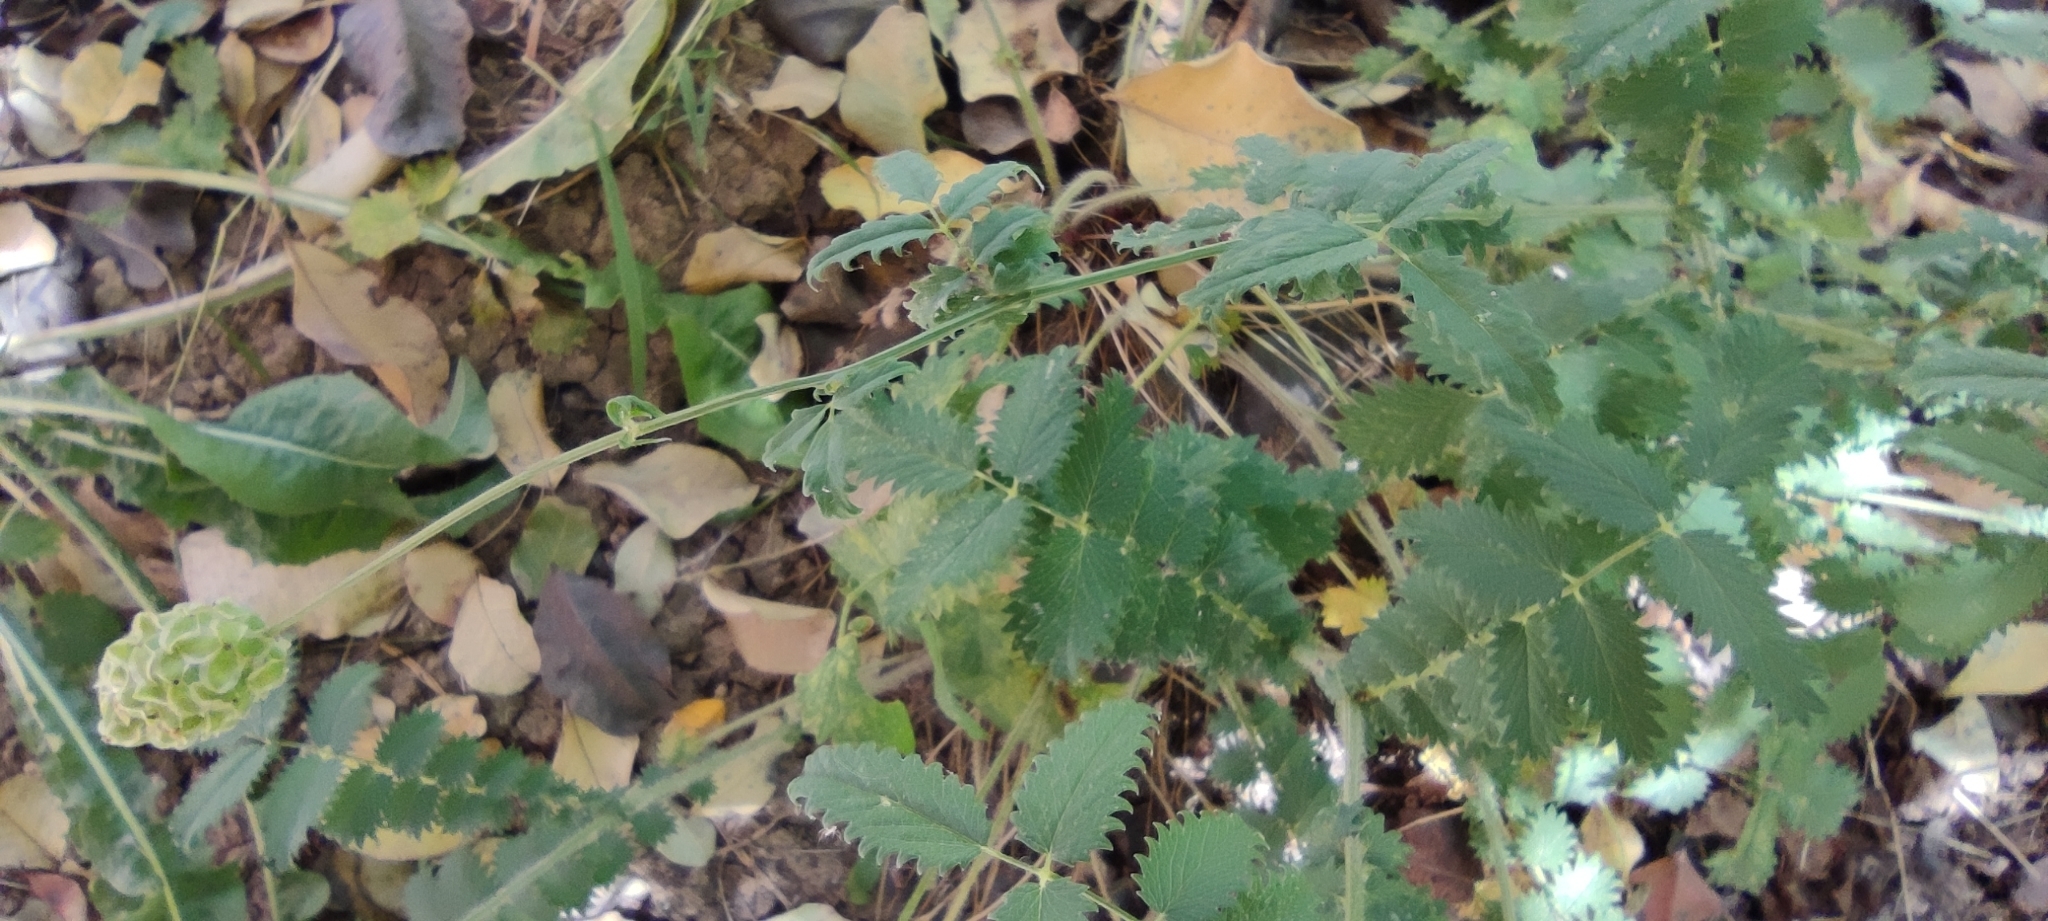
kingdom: Plantae
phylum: Tracheophyta
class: Magnoliopsida
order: Rosales
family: Rosaceae
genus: Poterium
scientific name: Poterium
